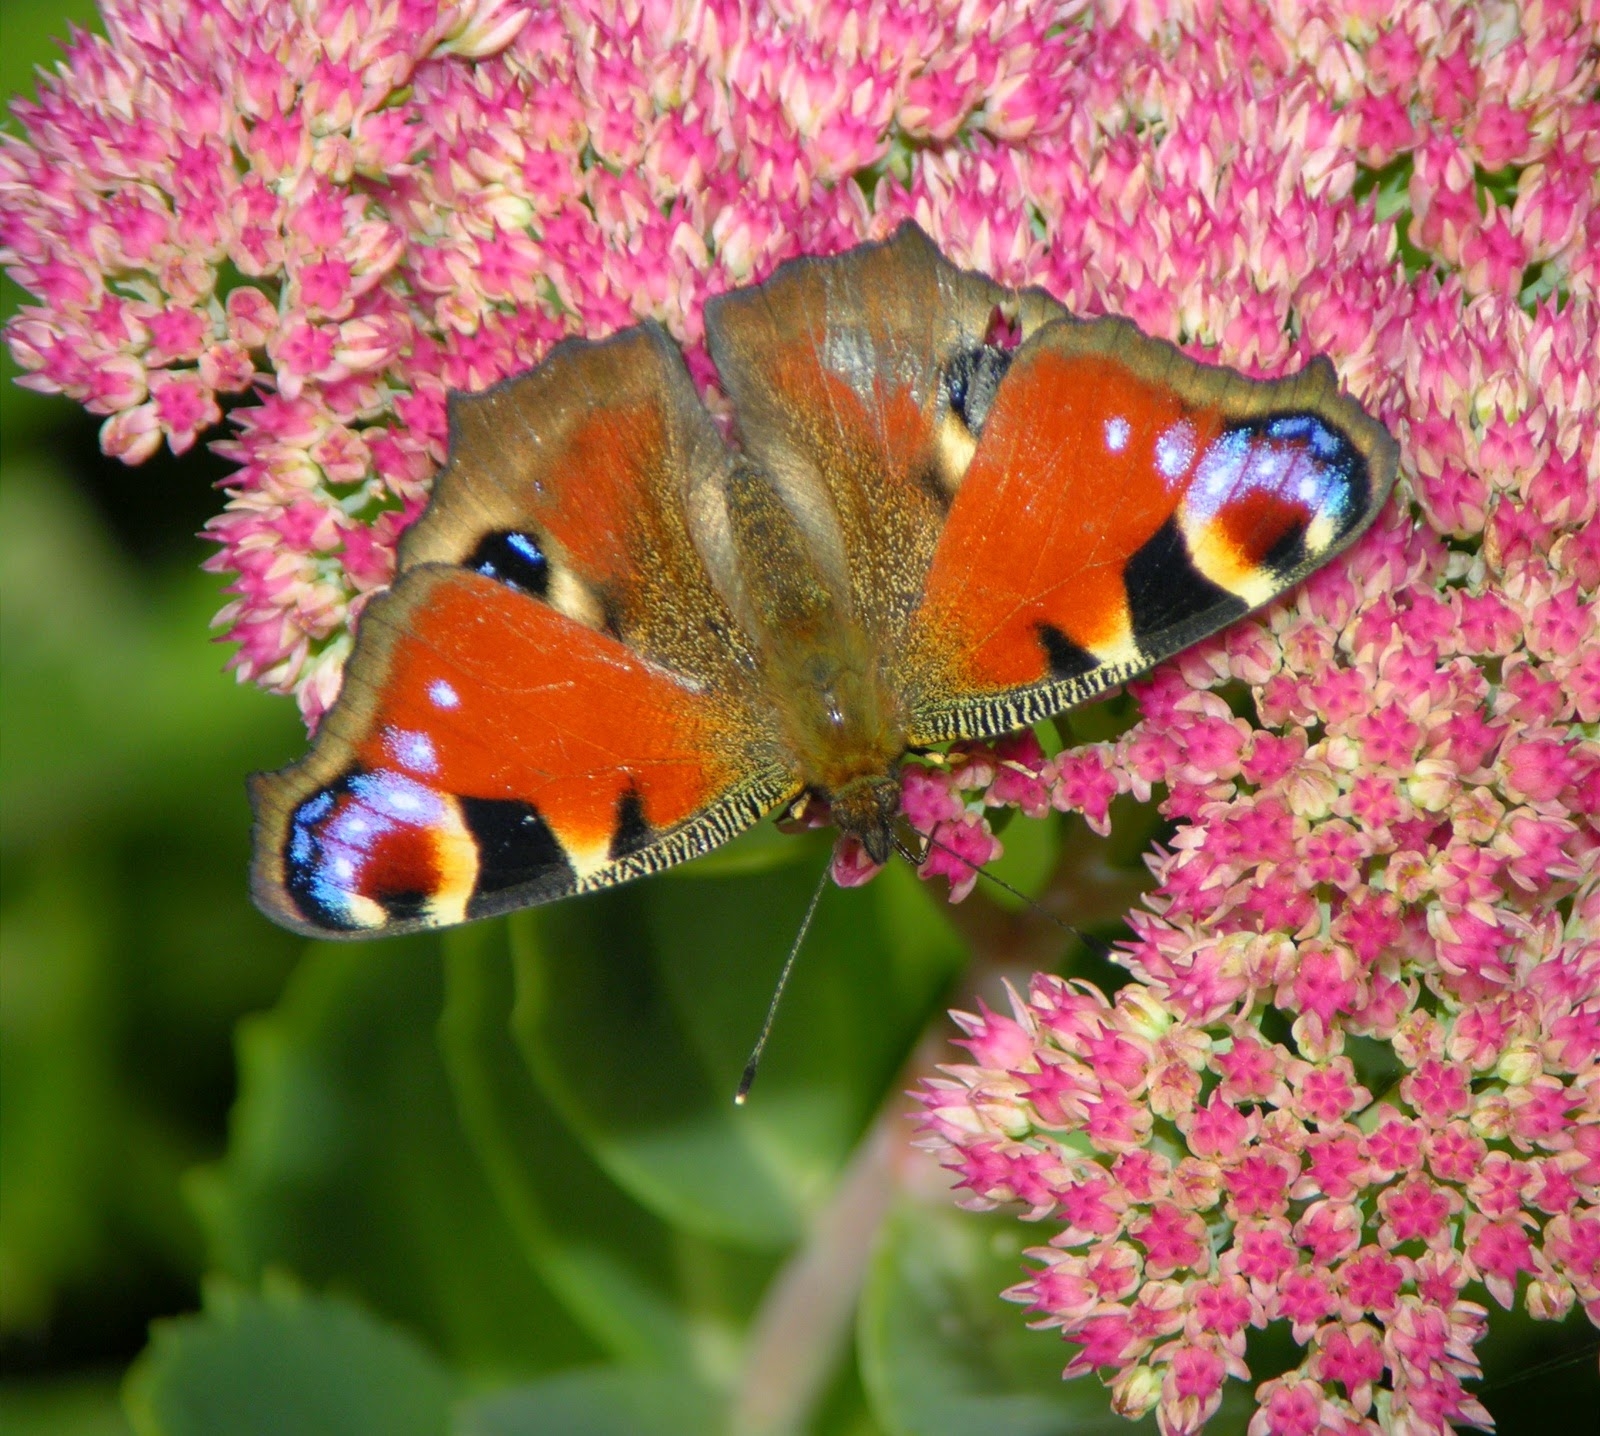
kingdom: Animalia
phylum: Arthropoda
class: Insecta
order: Lepidoptera
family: Nymphalidae
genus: Aglais
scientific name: Aglais io
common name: Peacock
